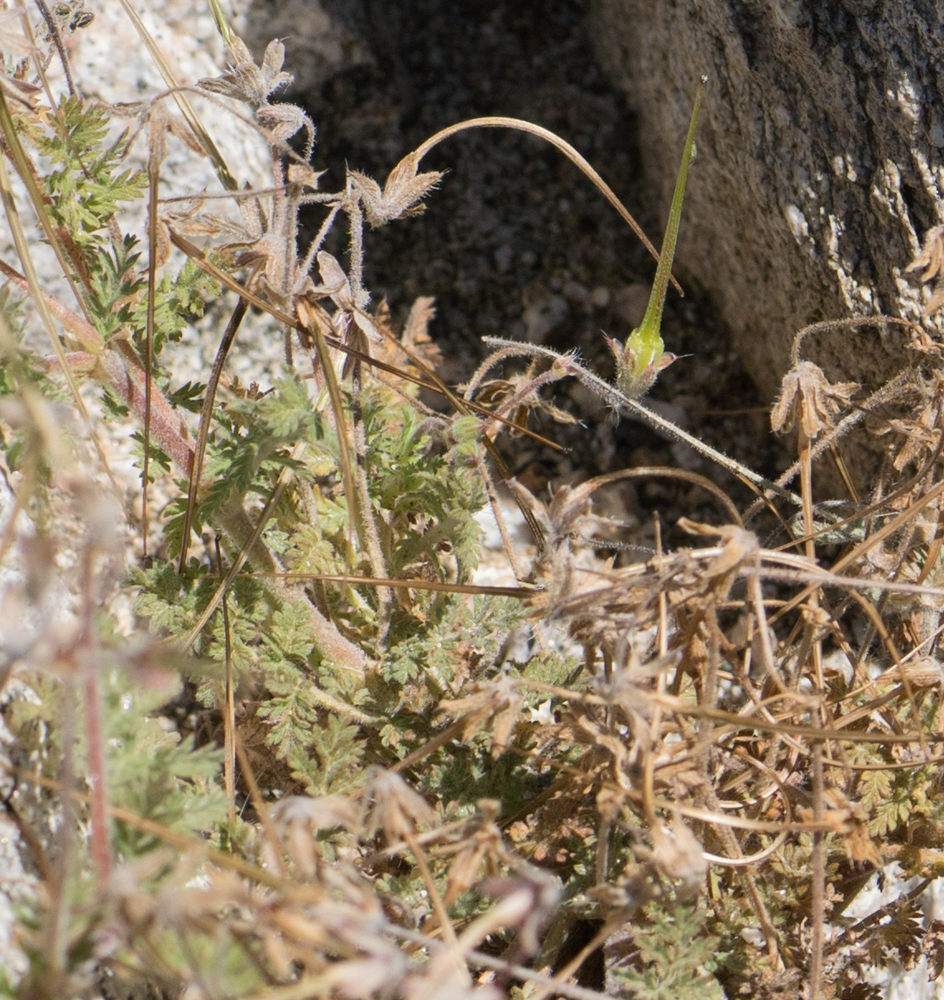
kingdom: Plantae
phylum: Tracheophyta
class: Magnoliopsida
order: Geraniales
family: Geraniaceae
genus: Erodium
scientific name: Erodium cicutarium
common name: Common stork's-bill
